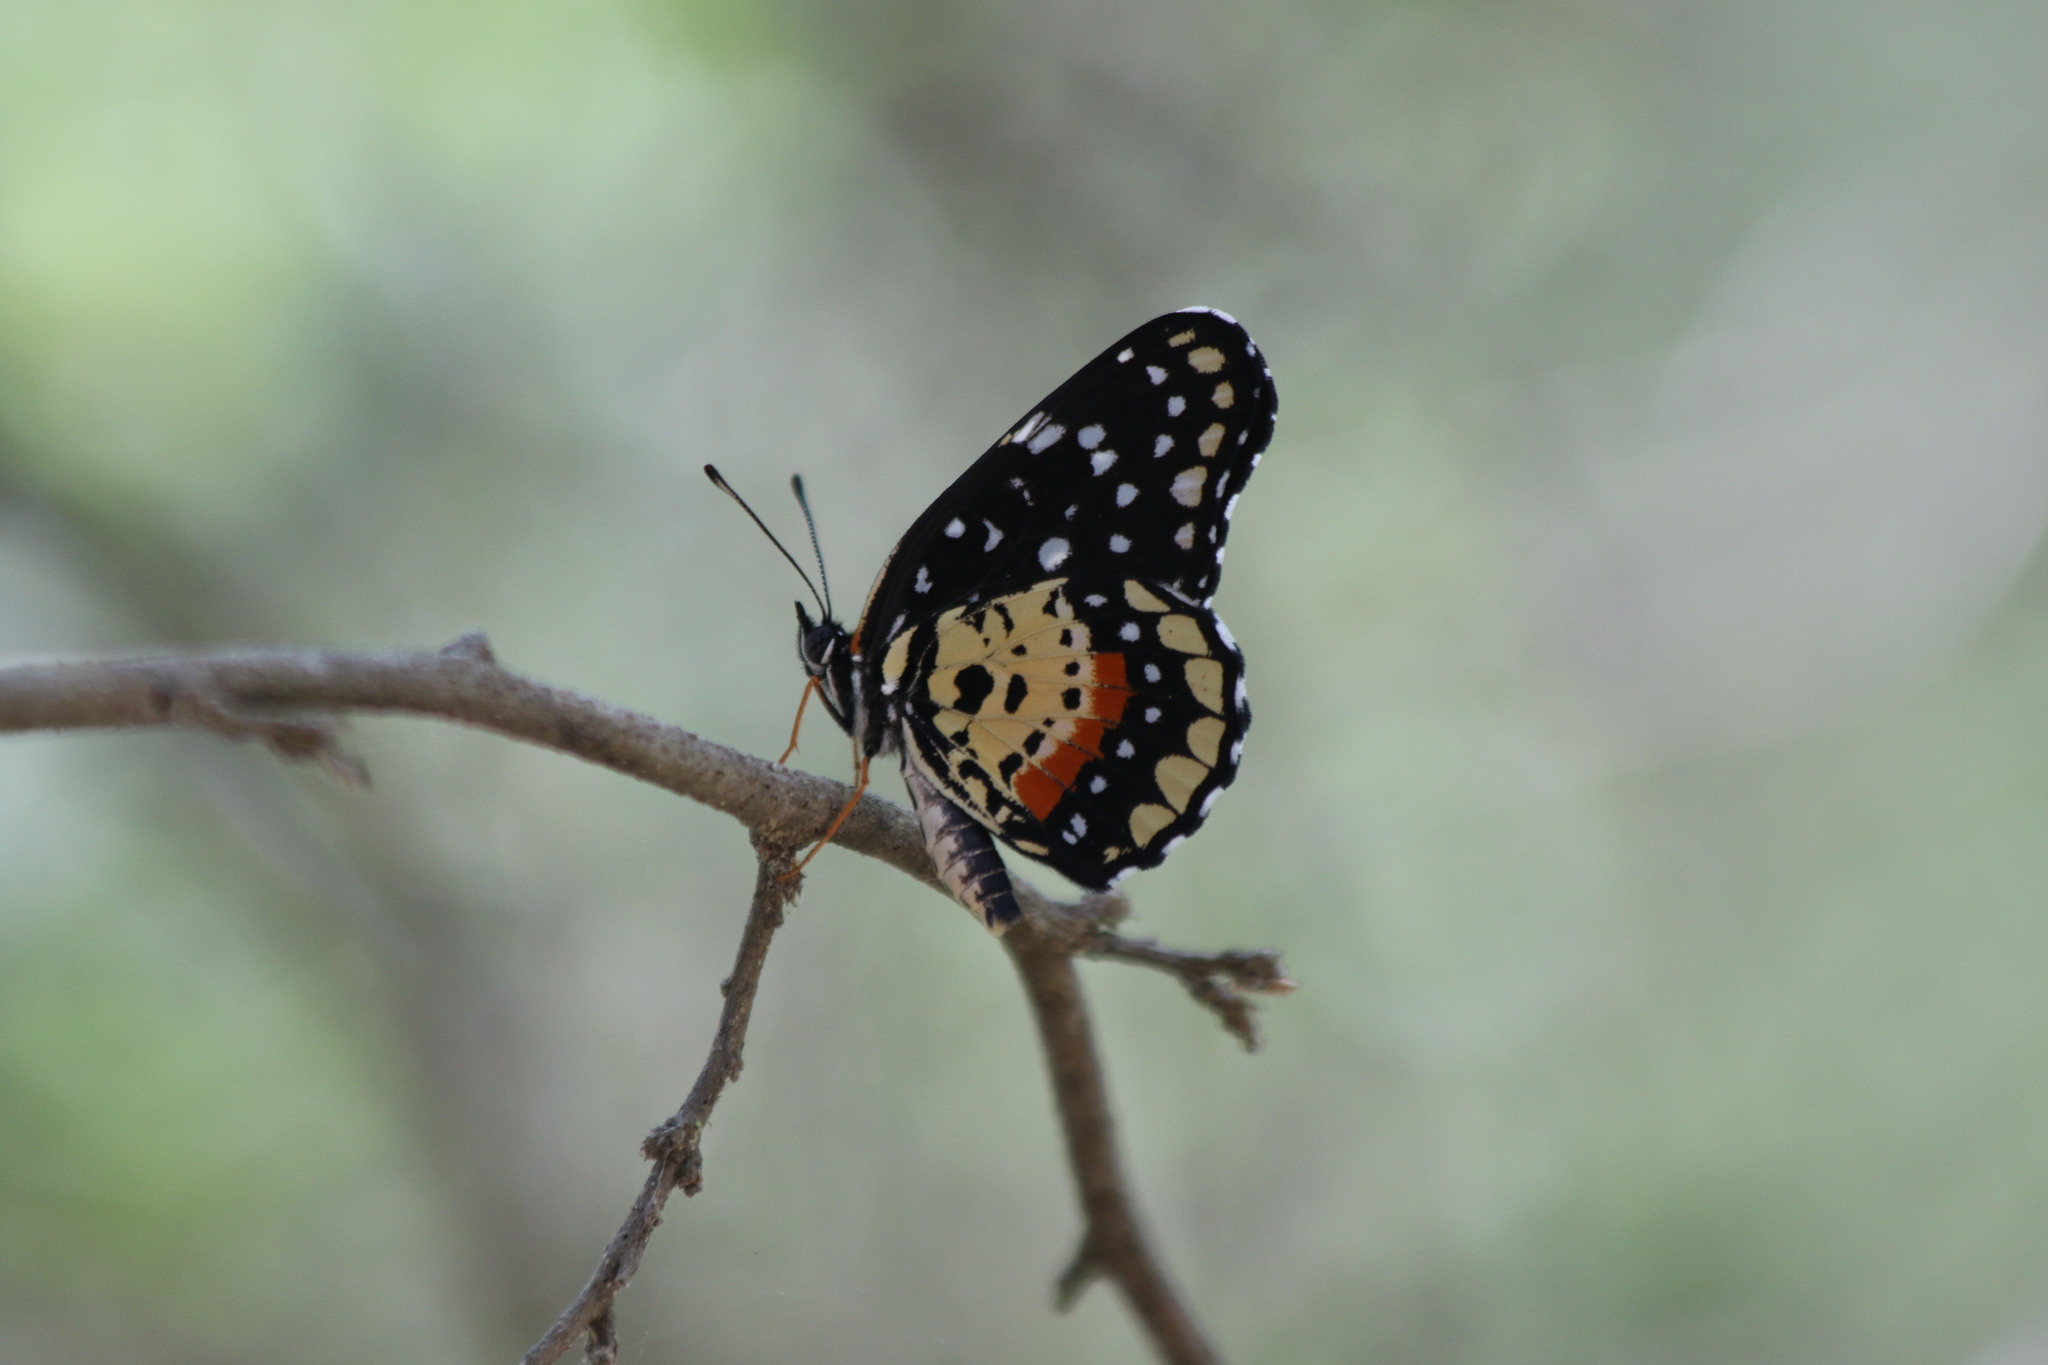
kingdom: Animalia
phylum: Arthropoda
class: Insecta
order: Lepidoptera
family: Nymphalidae
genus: Chlosyne
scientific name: Chlosyne janais
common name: Crimson patch
